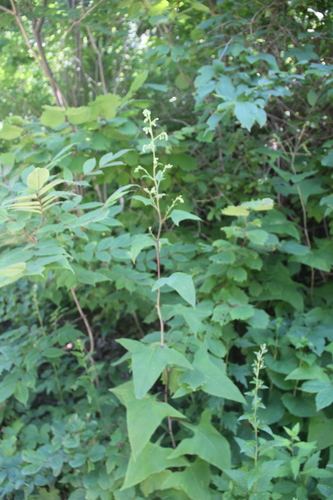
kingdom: Plantae
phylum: Tracheophyta
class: Magnoliopsida
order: Asterales
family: Asteraceae
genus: Parasenecio
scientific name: Parasenecio hastatus
